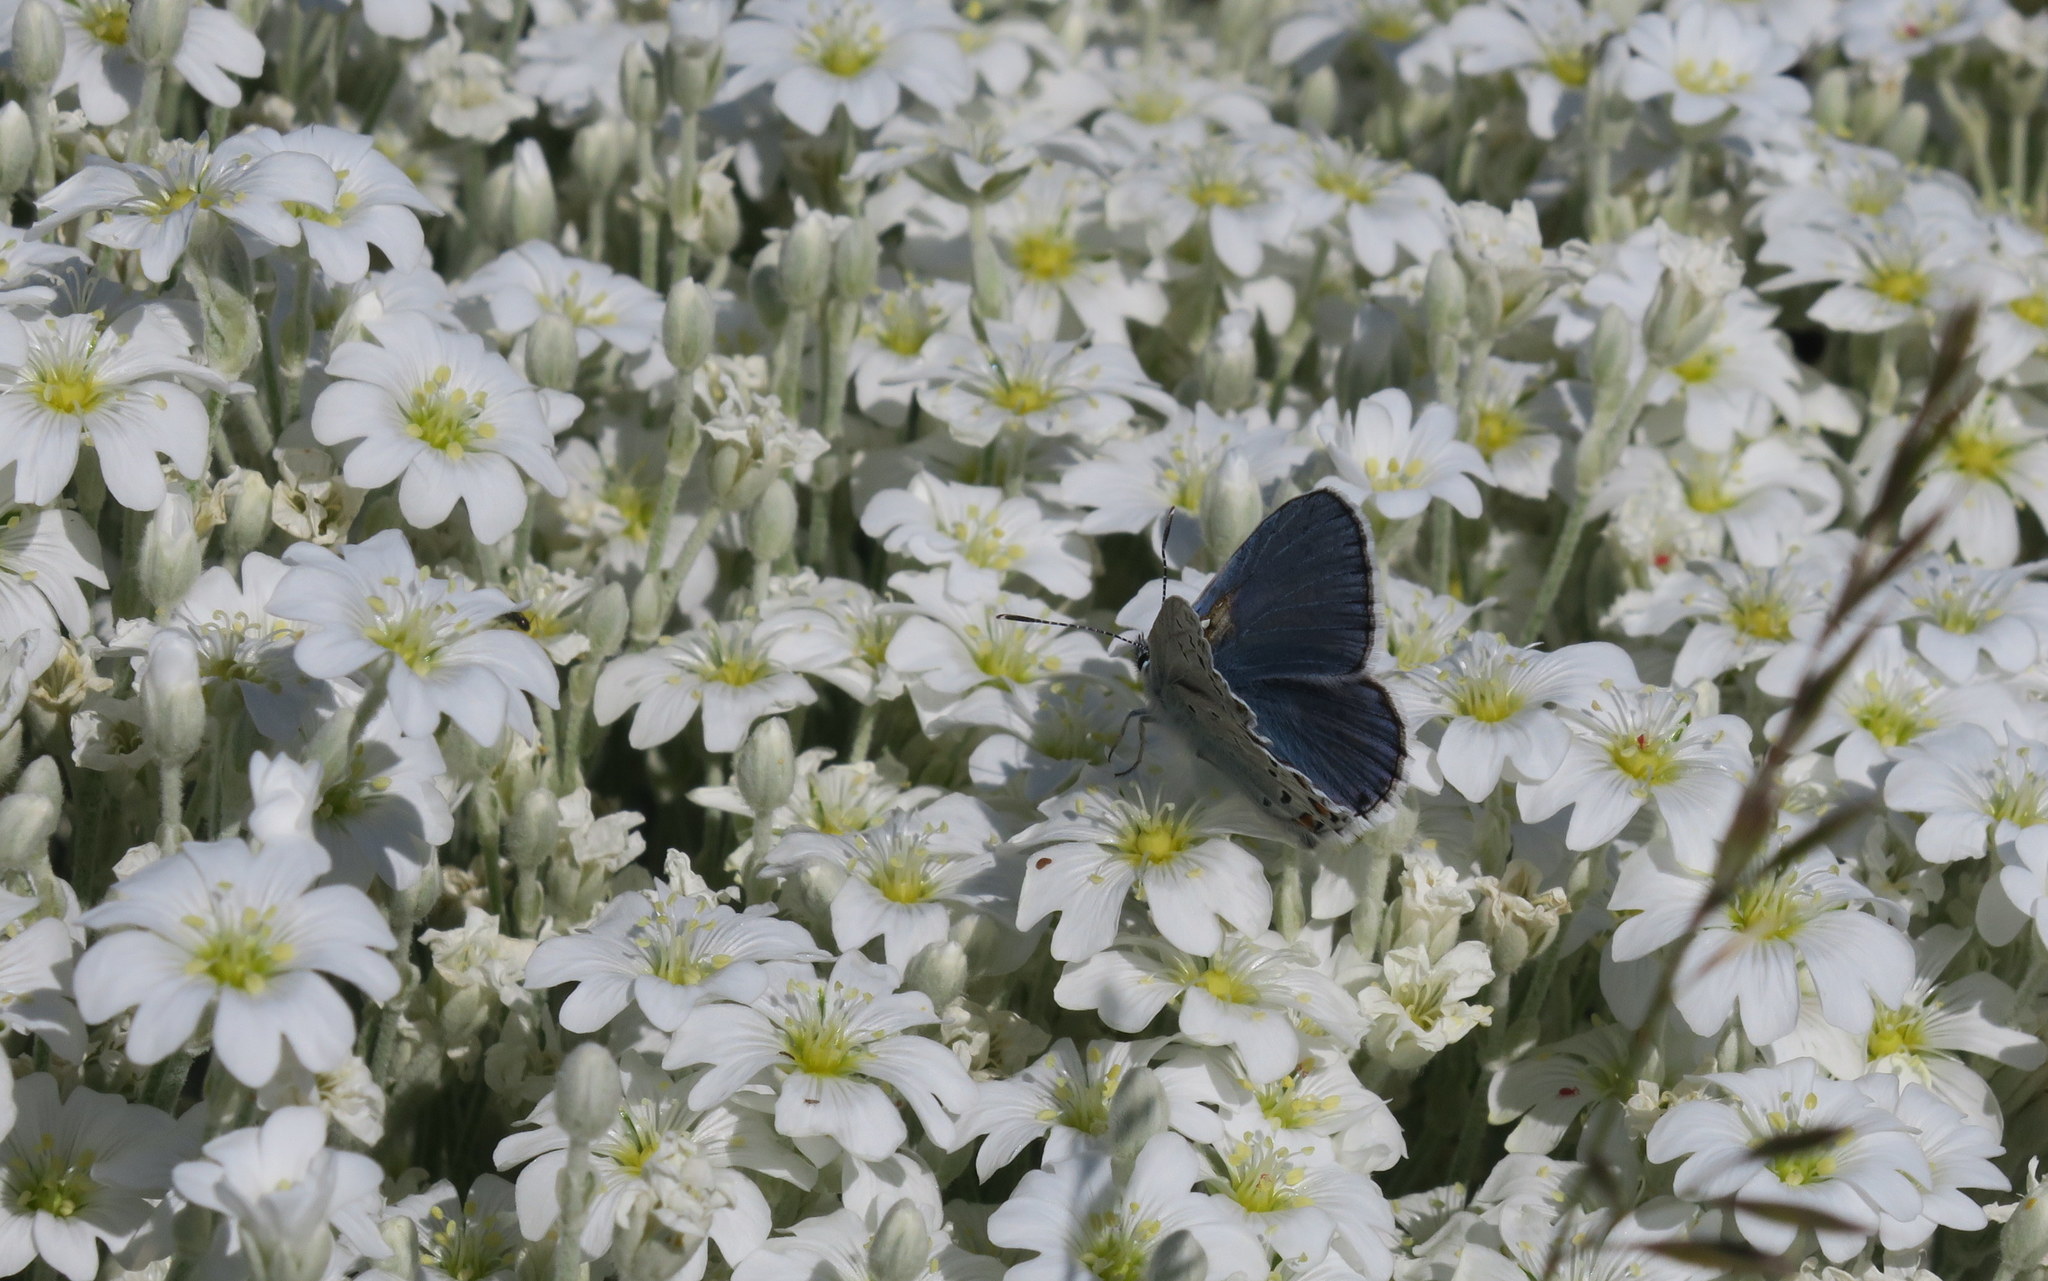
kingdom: Animalia
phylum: Arthropoda
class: Insecta
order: Lepidoptera
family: Lycaenidae
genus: Plebejus
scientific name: Plebejus pylaon
